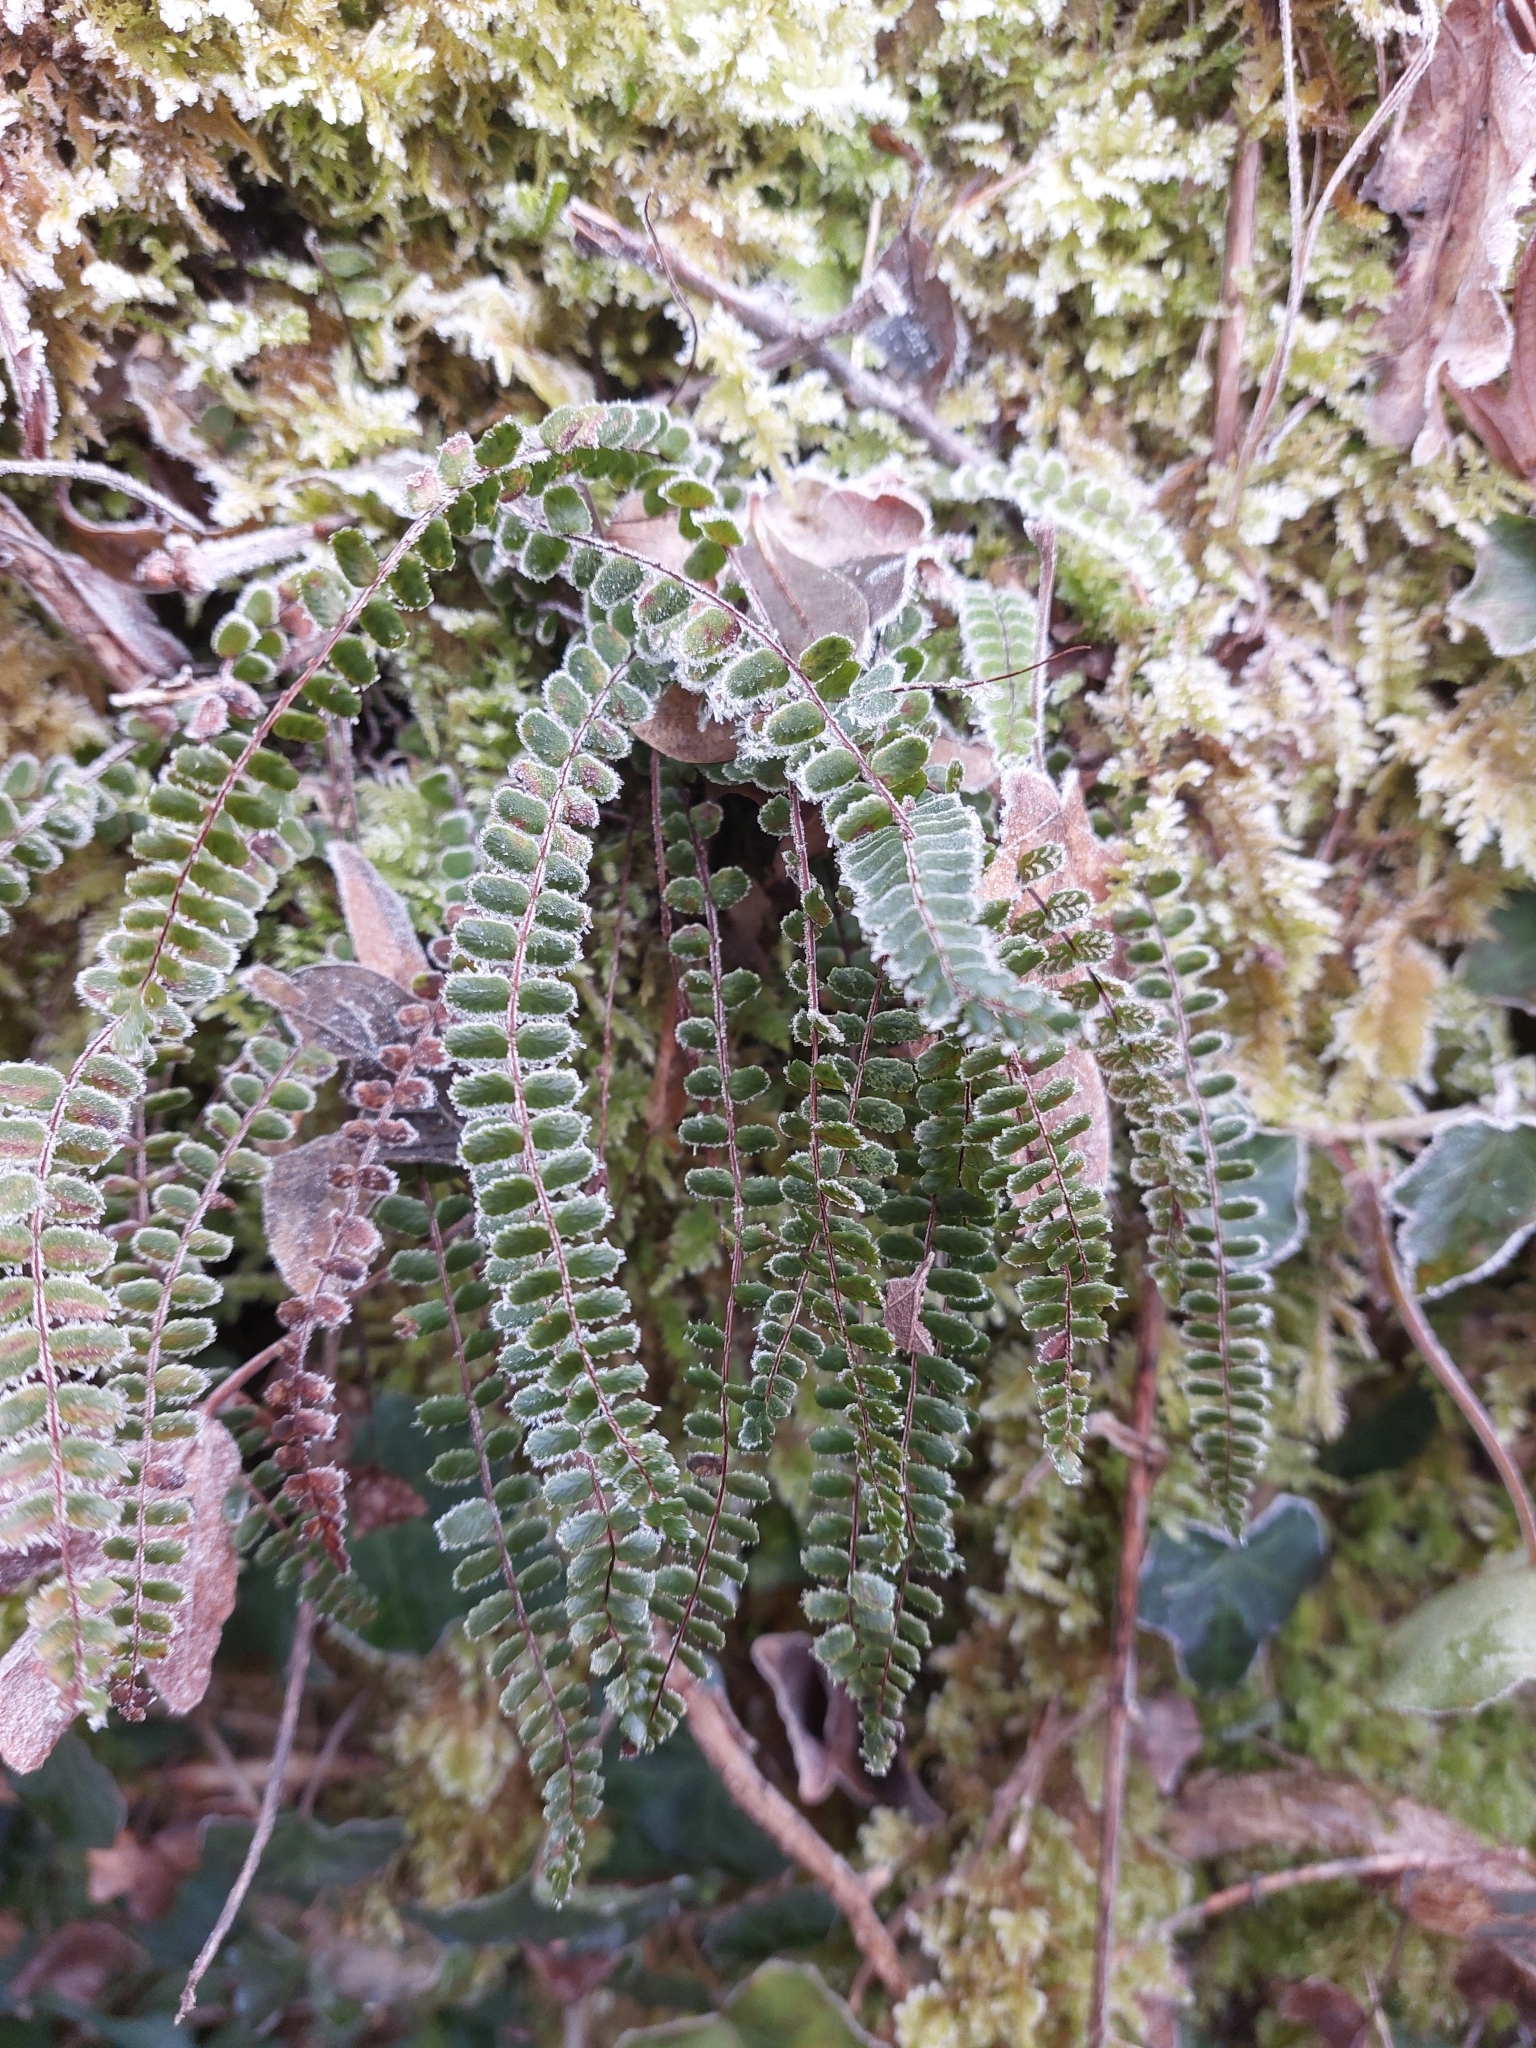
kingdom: Plantae
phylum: Tracheophyta
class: Polypodiopsida
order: Polypodiales
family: Aspleniaceae
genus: Asplenium
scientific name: Asplenium trichomanes
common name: Maidenhair spleenwort
